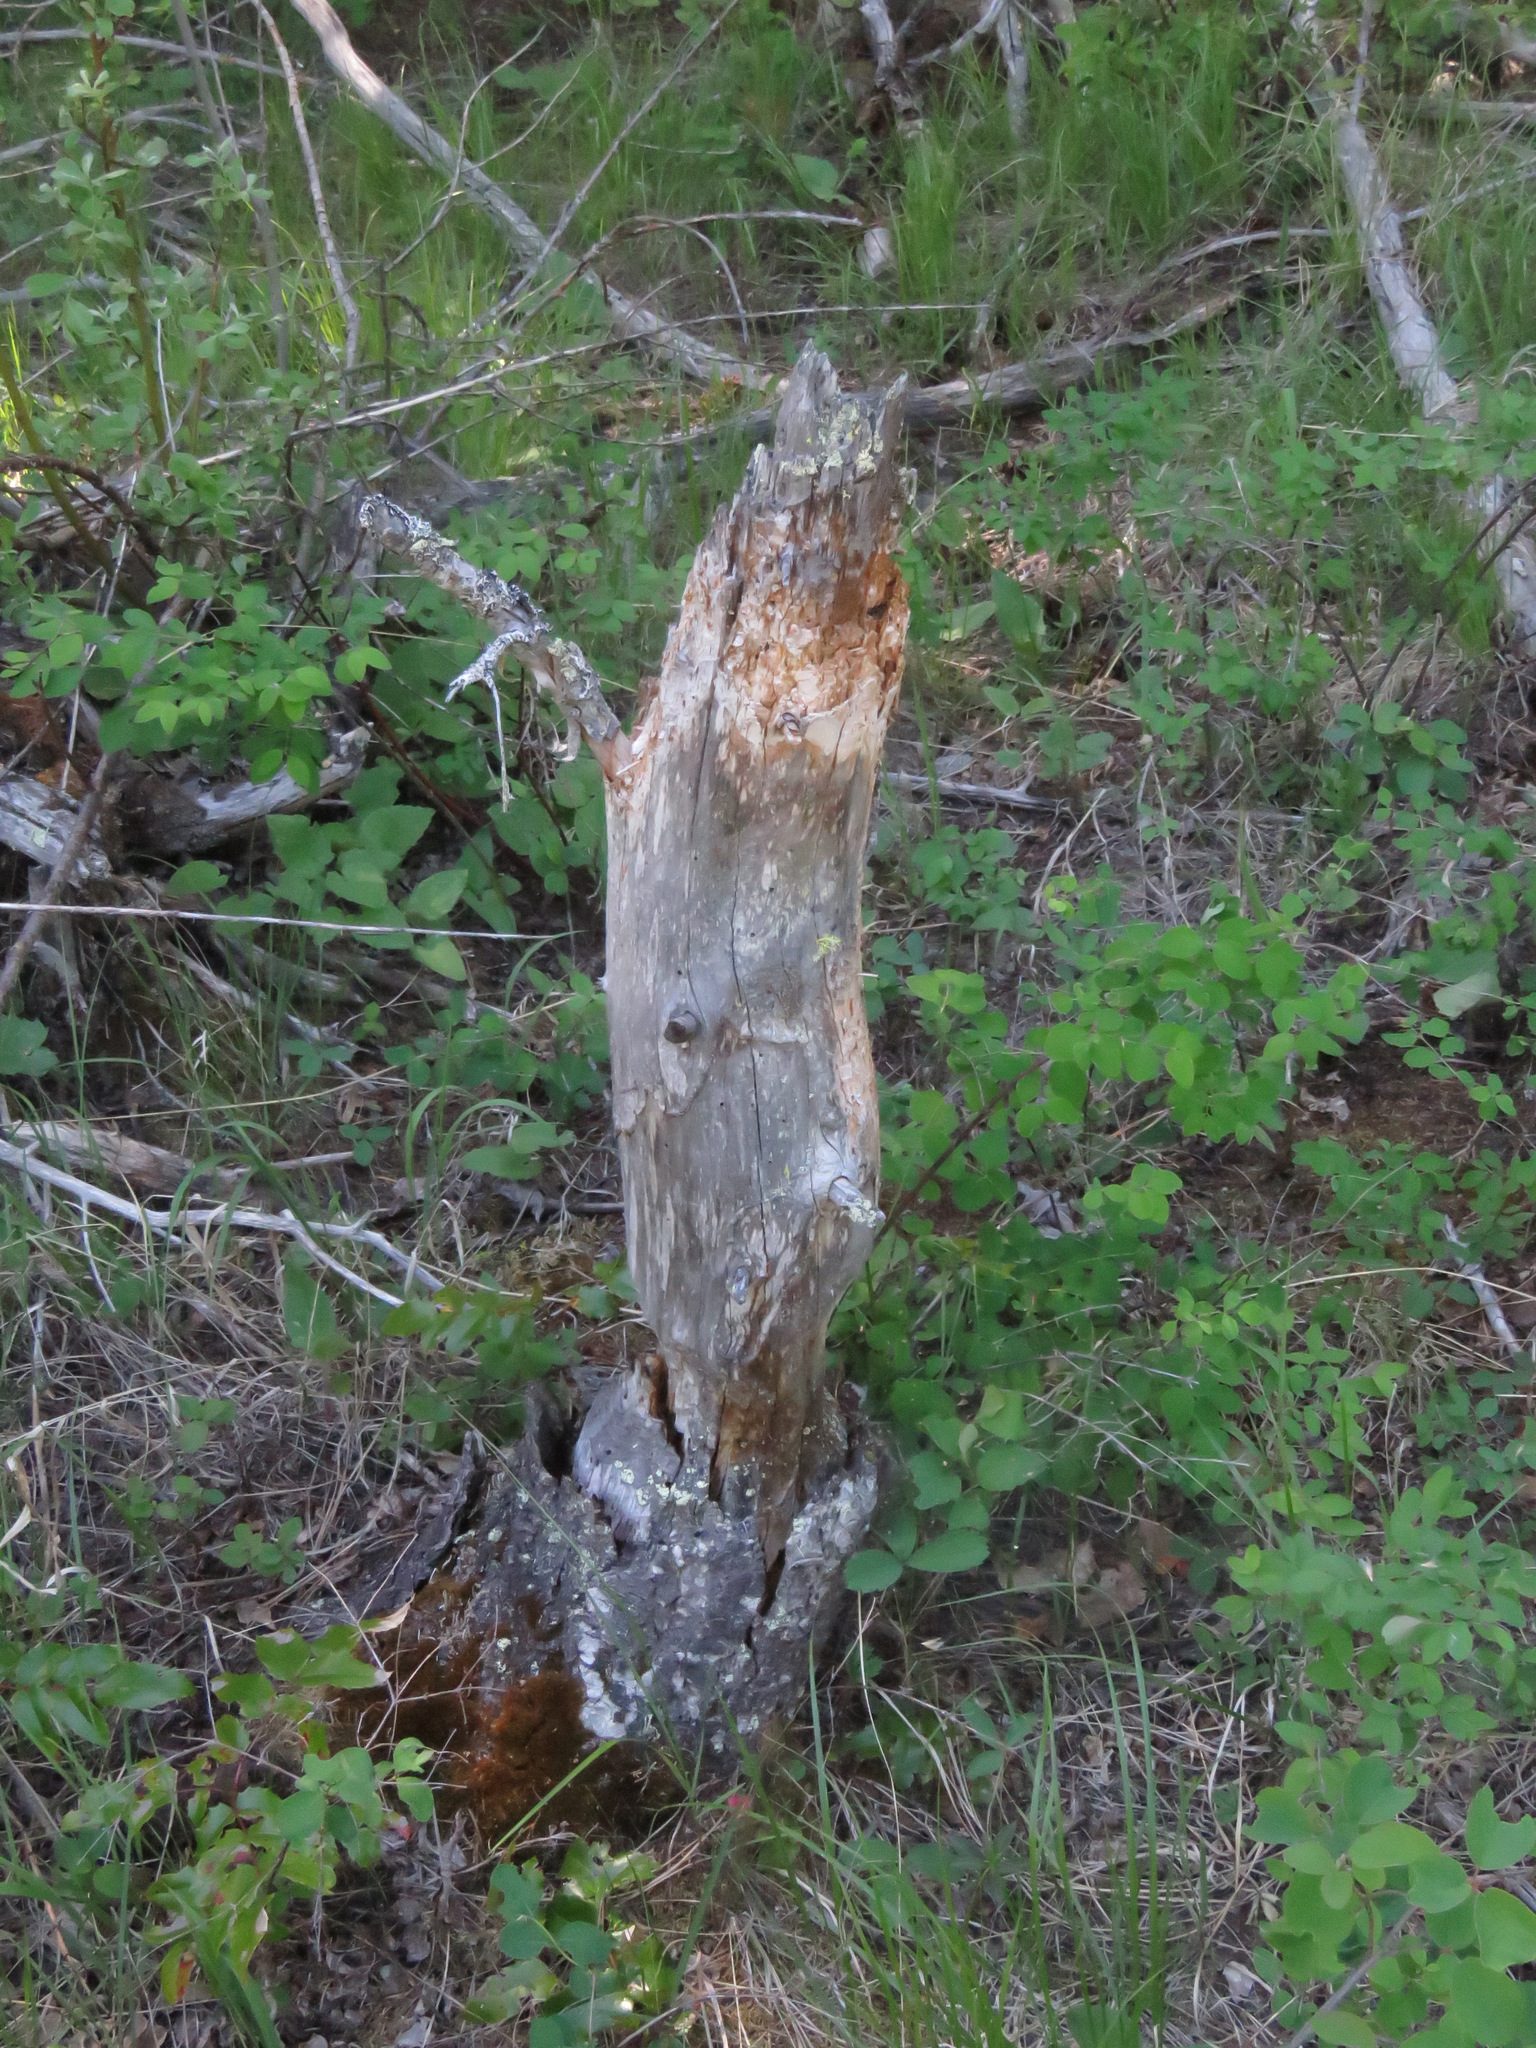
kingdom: Animalia
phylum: Chordata
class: Mammalia
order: Rodentia
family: Castoridae
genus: Castor
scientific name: Castor canadensis
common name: American beaver
